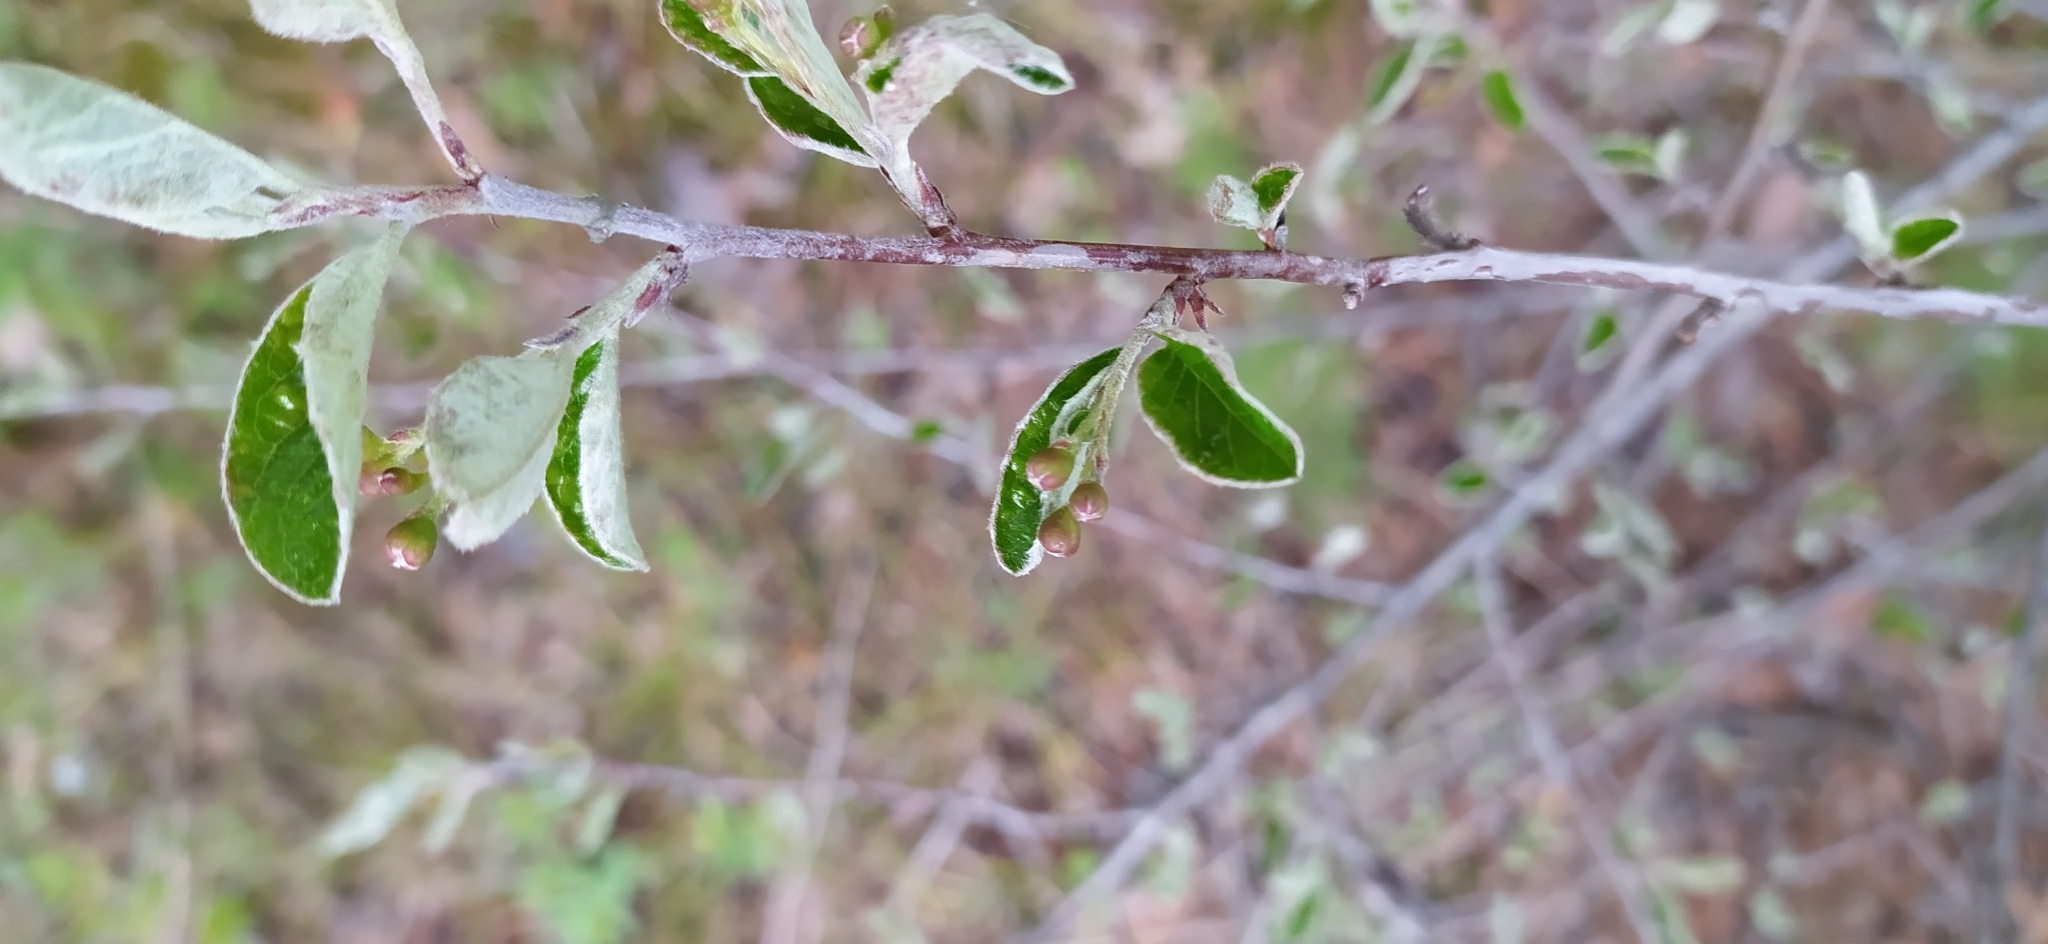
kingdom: Plantae
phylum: Tracheophyta
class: Magnoliopsida
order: Rosales
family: Rosaceae
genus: Cotoneaster
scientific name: Cotoneaster melanocarpus
